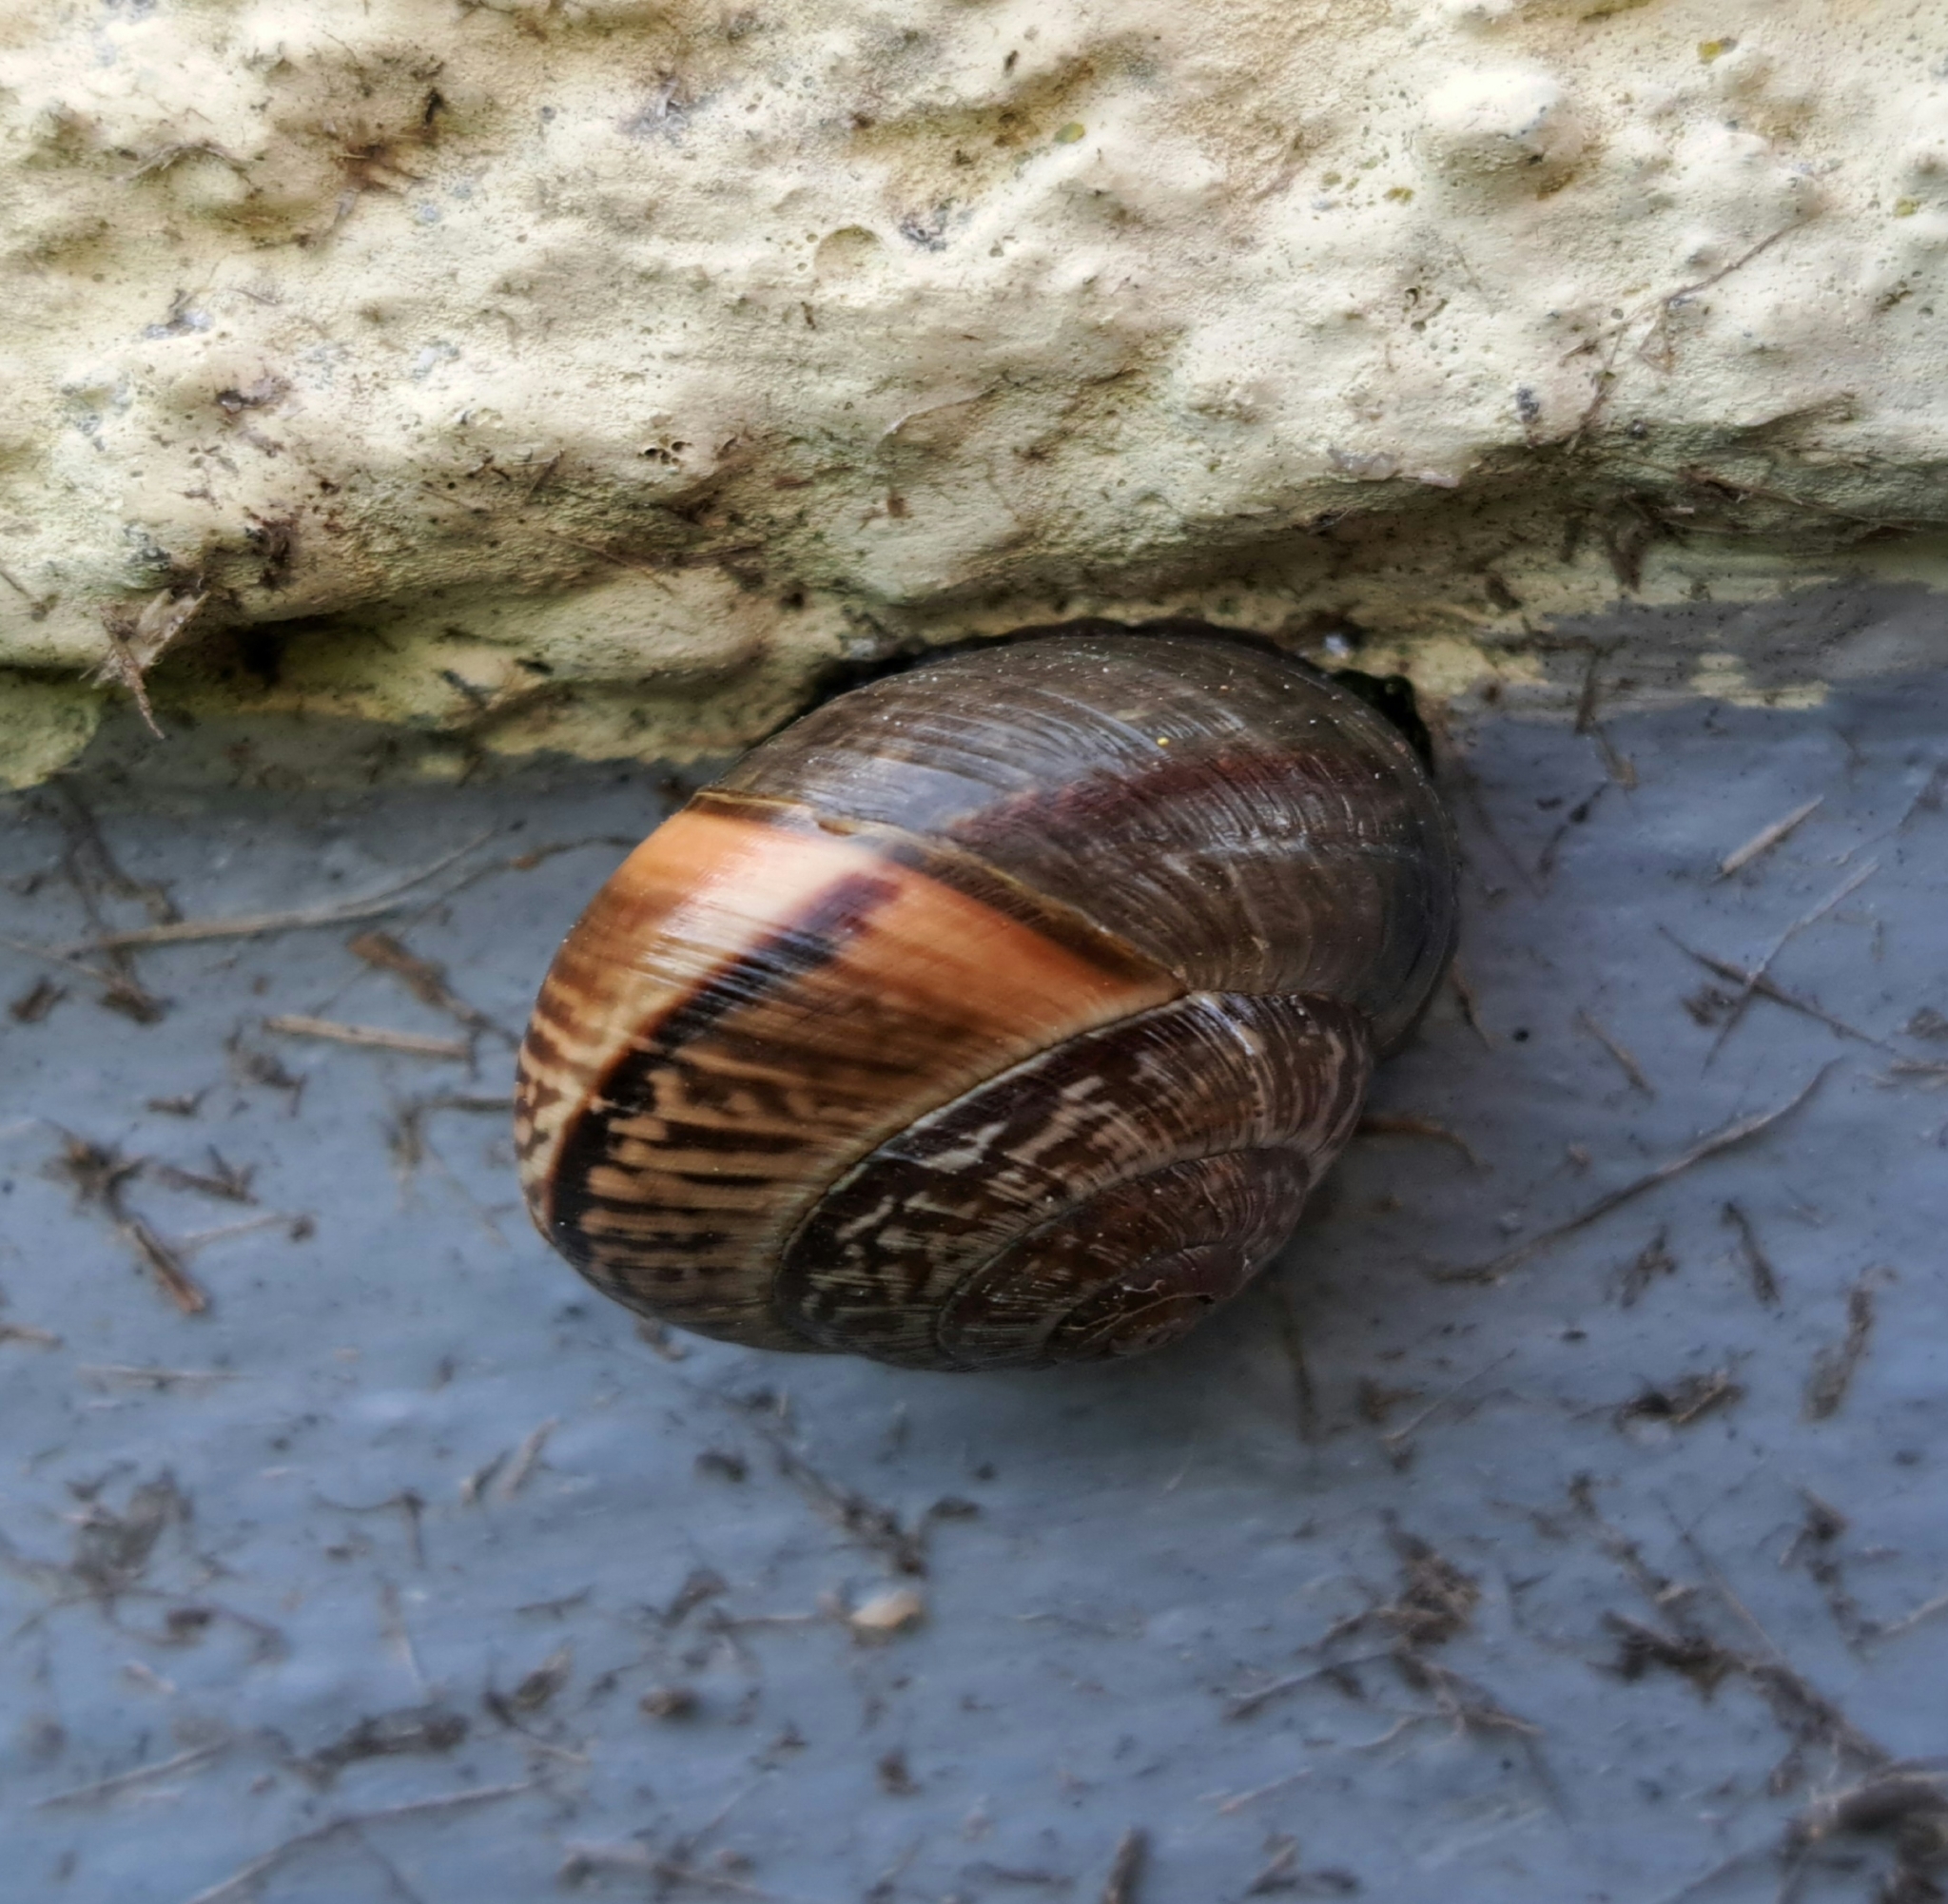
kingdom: Animalia
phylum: Mollusca
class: Gastropoda
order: Stylommatophora
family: Helicidae
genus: Arianta
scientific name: Arianta arbustorum
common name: Copse snail
